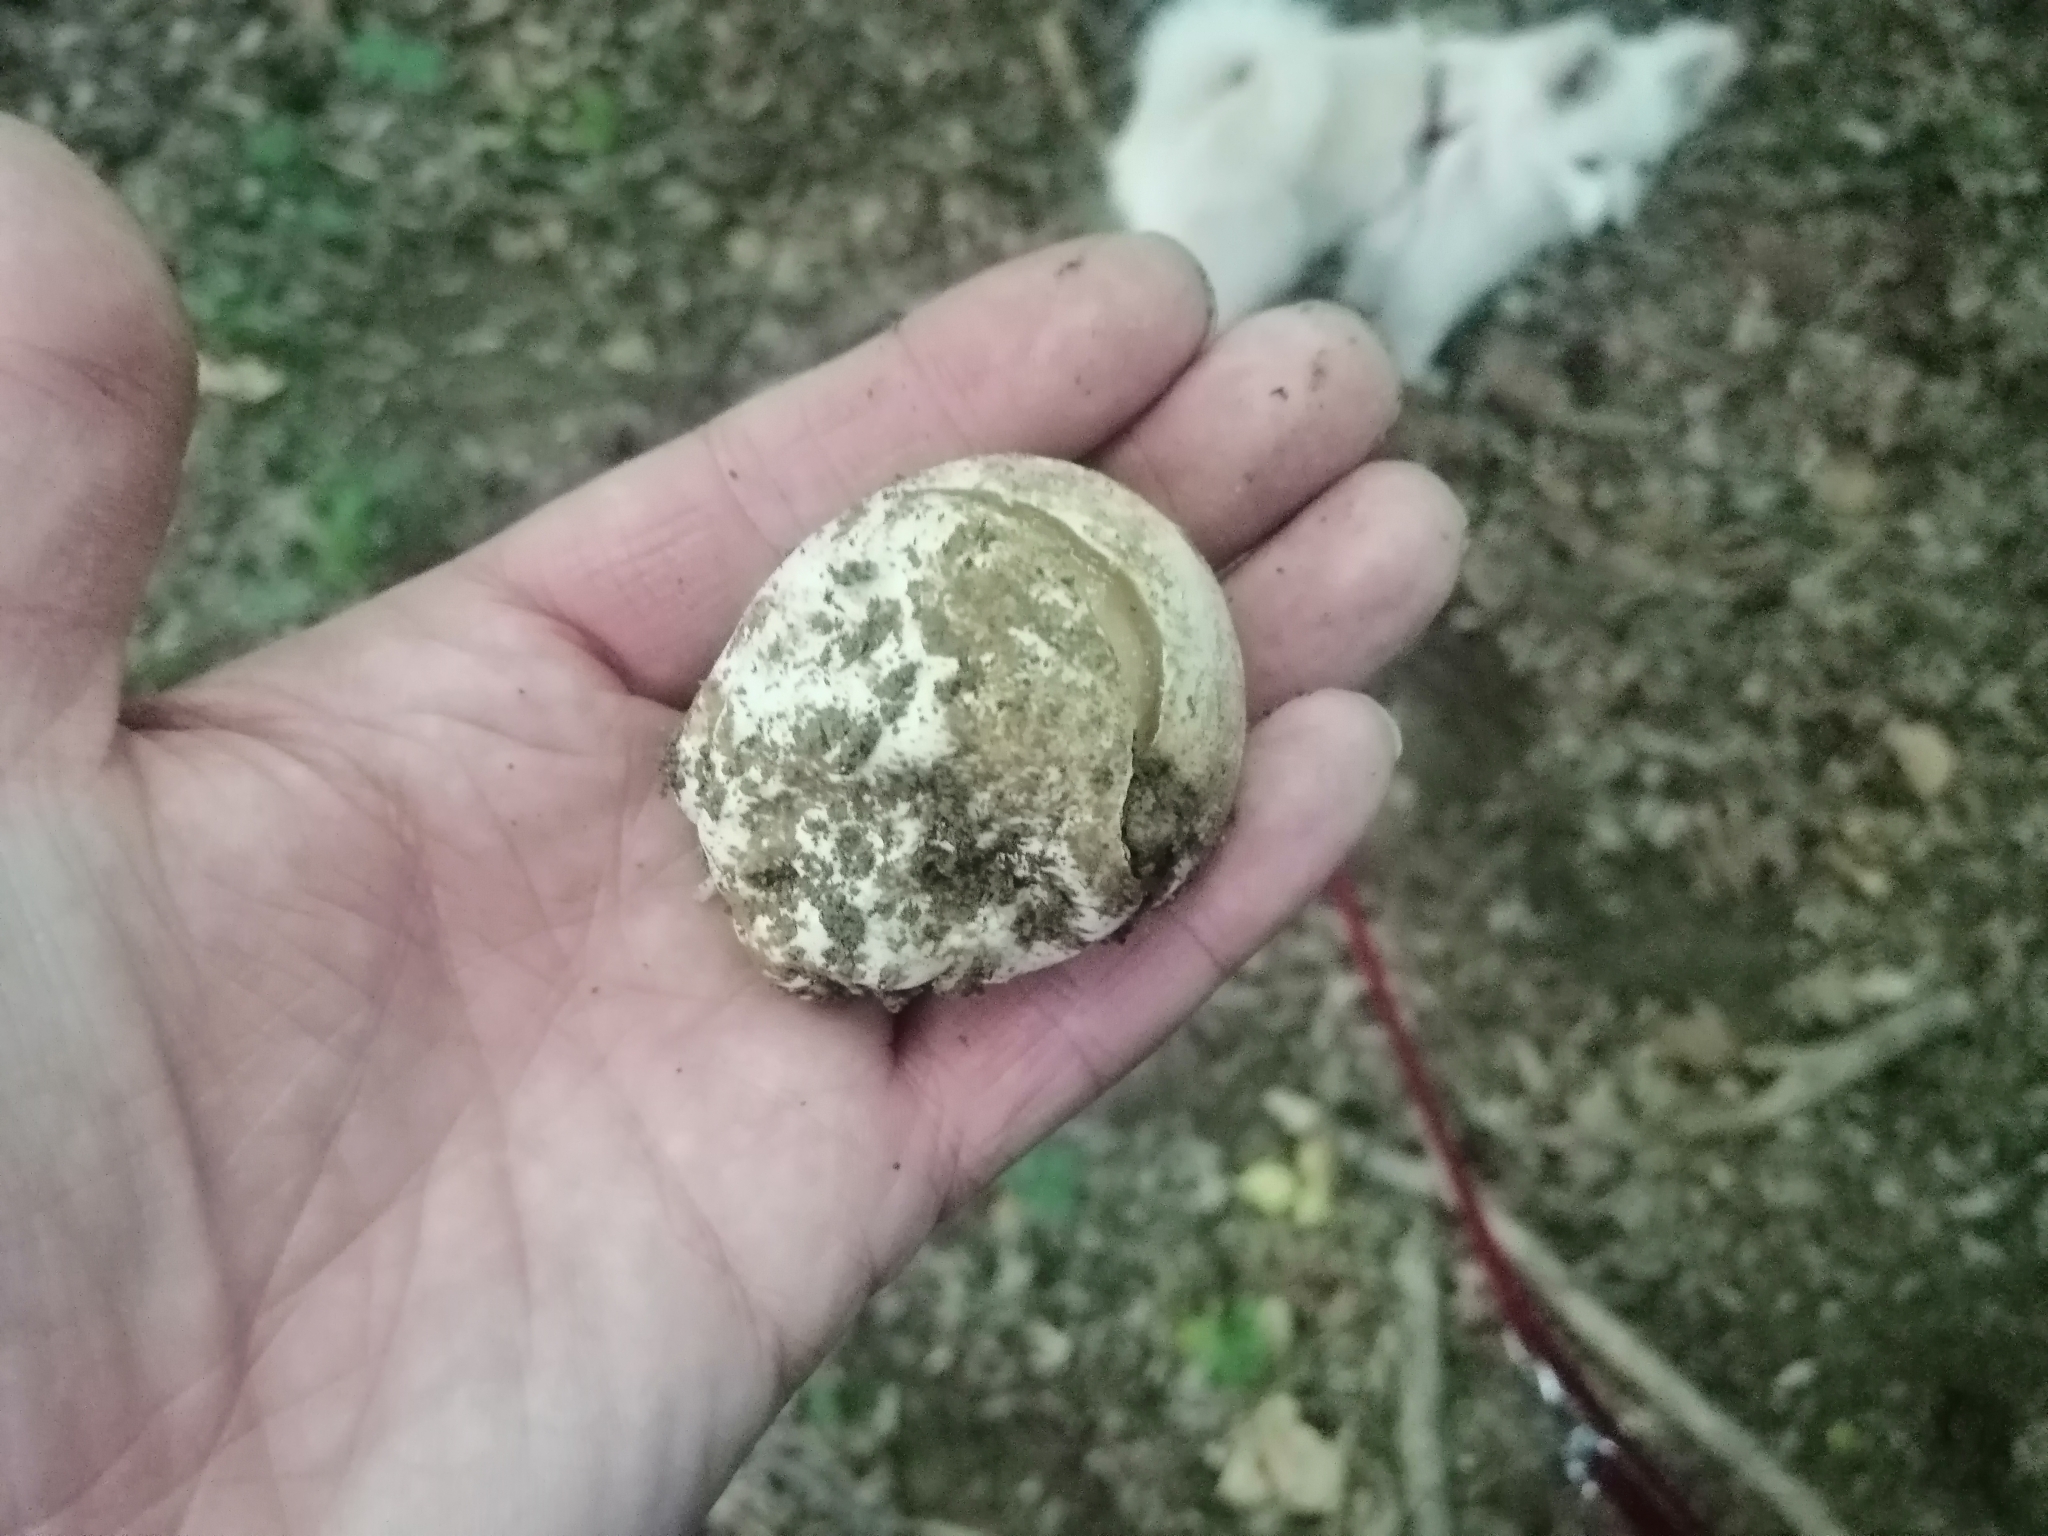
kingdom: Fungi
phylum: Basidiomycota
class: Agaricomycetes
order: Phallales
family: Phallaceae
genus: Phallus
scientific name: Phallus impudicus
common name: Common stinkhorn
